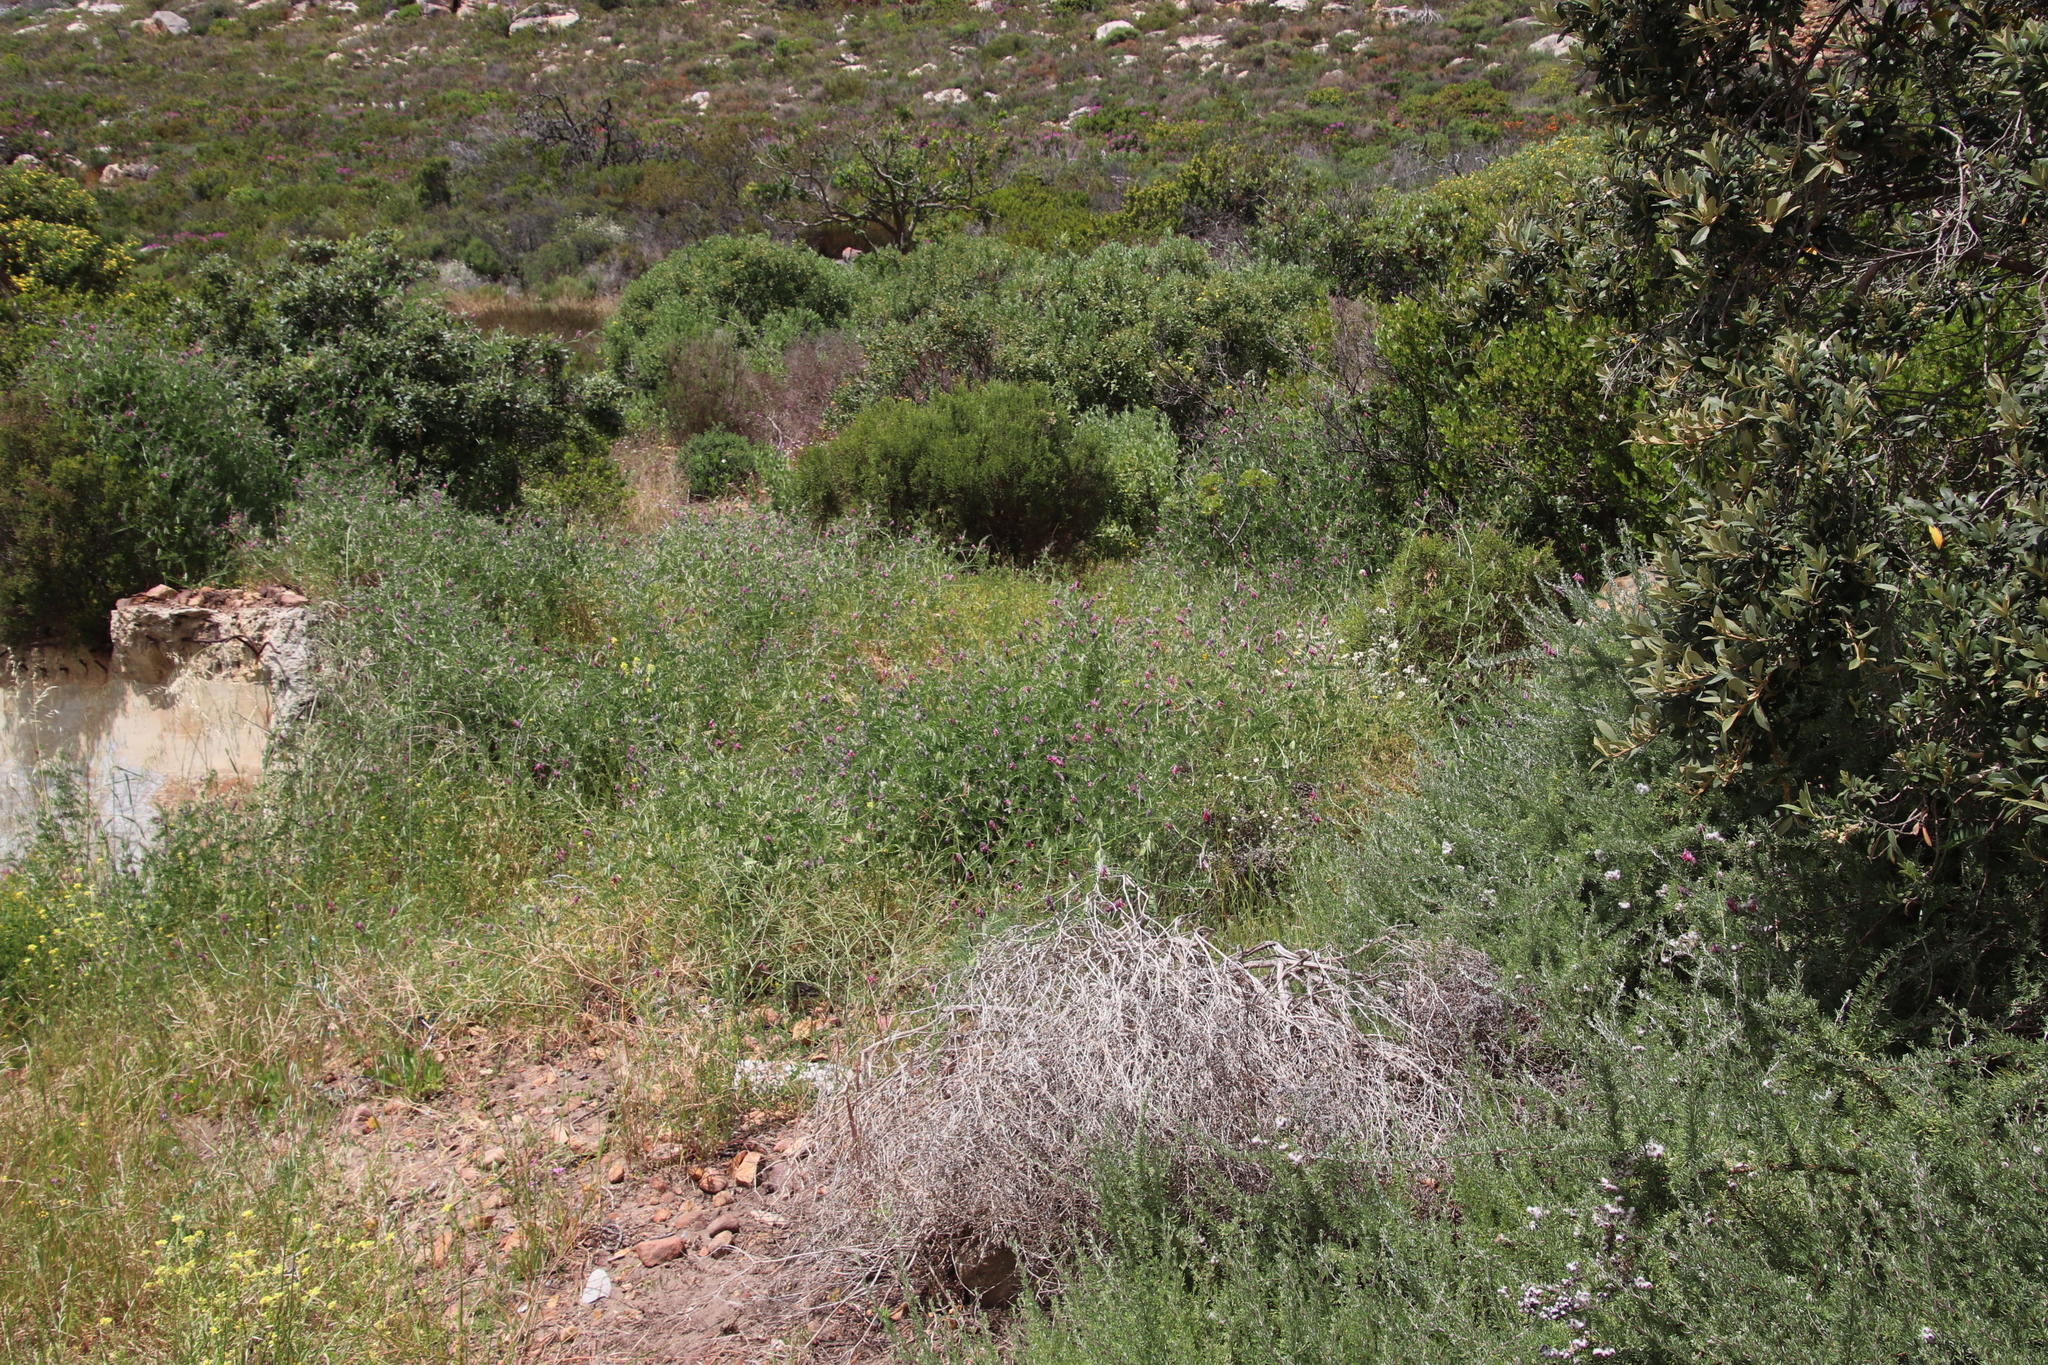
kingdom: Plantae
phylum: Tracheophyta
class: Magnoliopsida
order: Fabales
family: Fabaceae
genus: Vicia
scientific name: Vicia benghalensis
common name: Purple vetch
